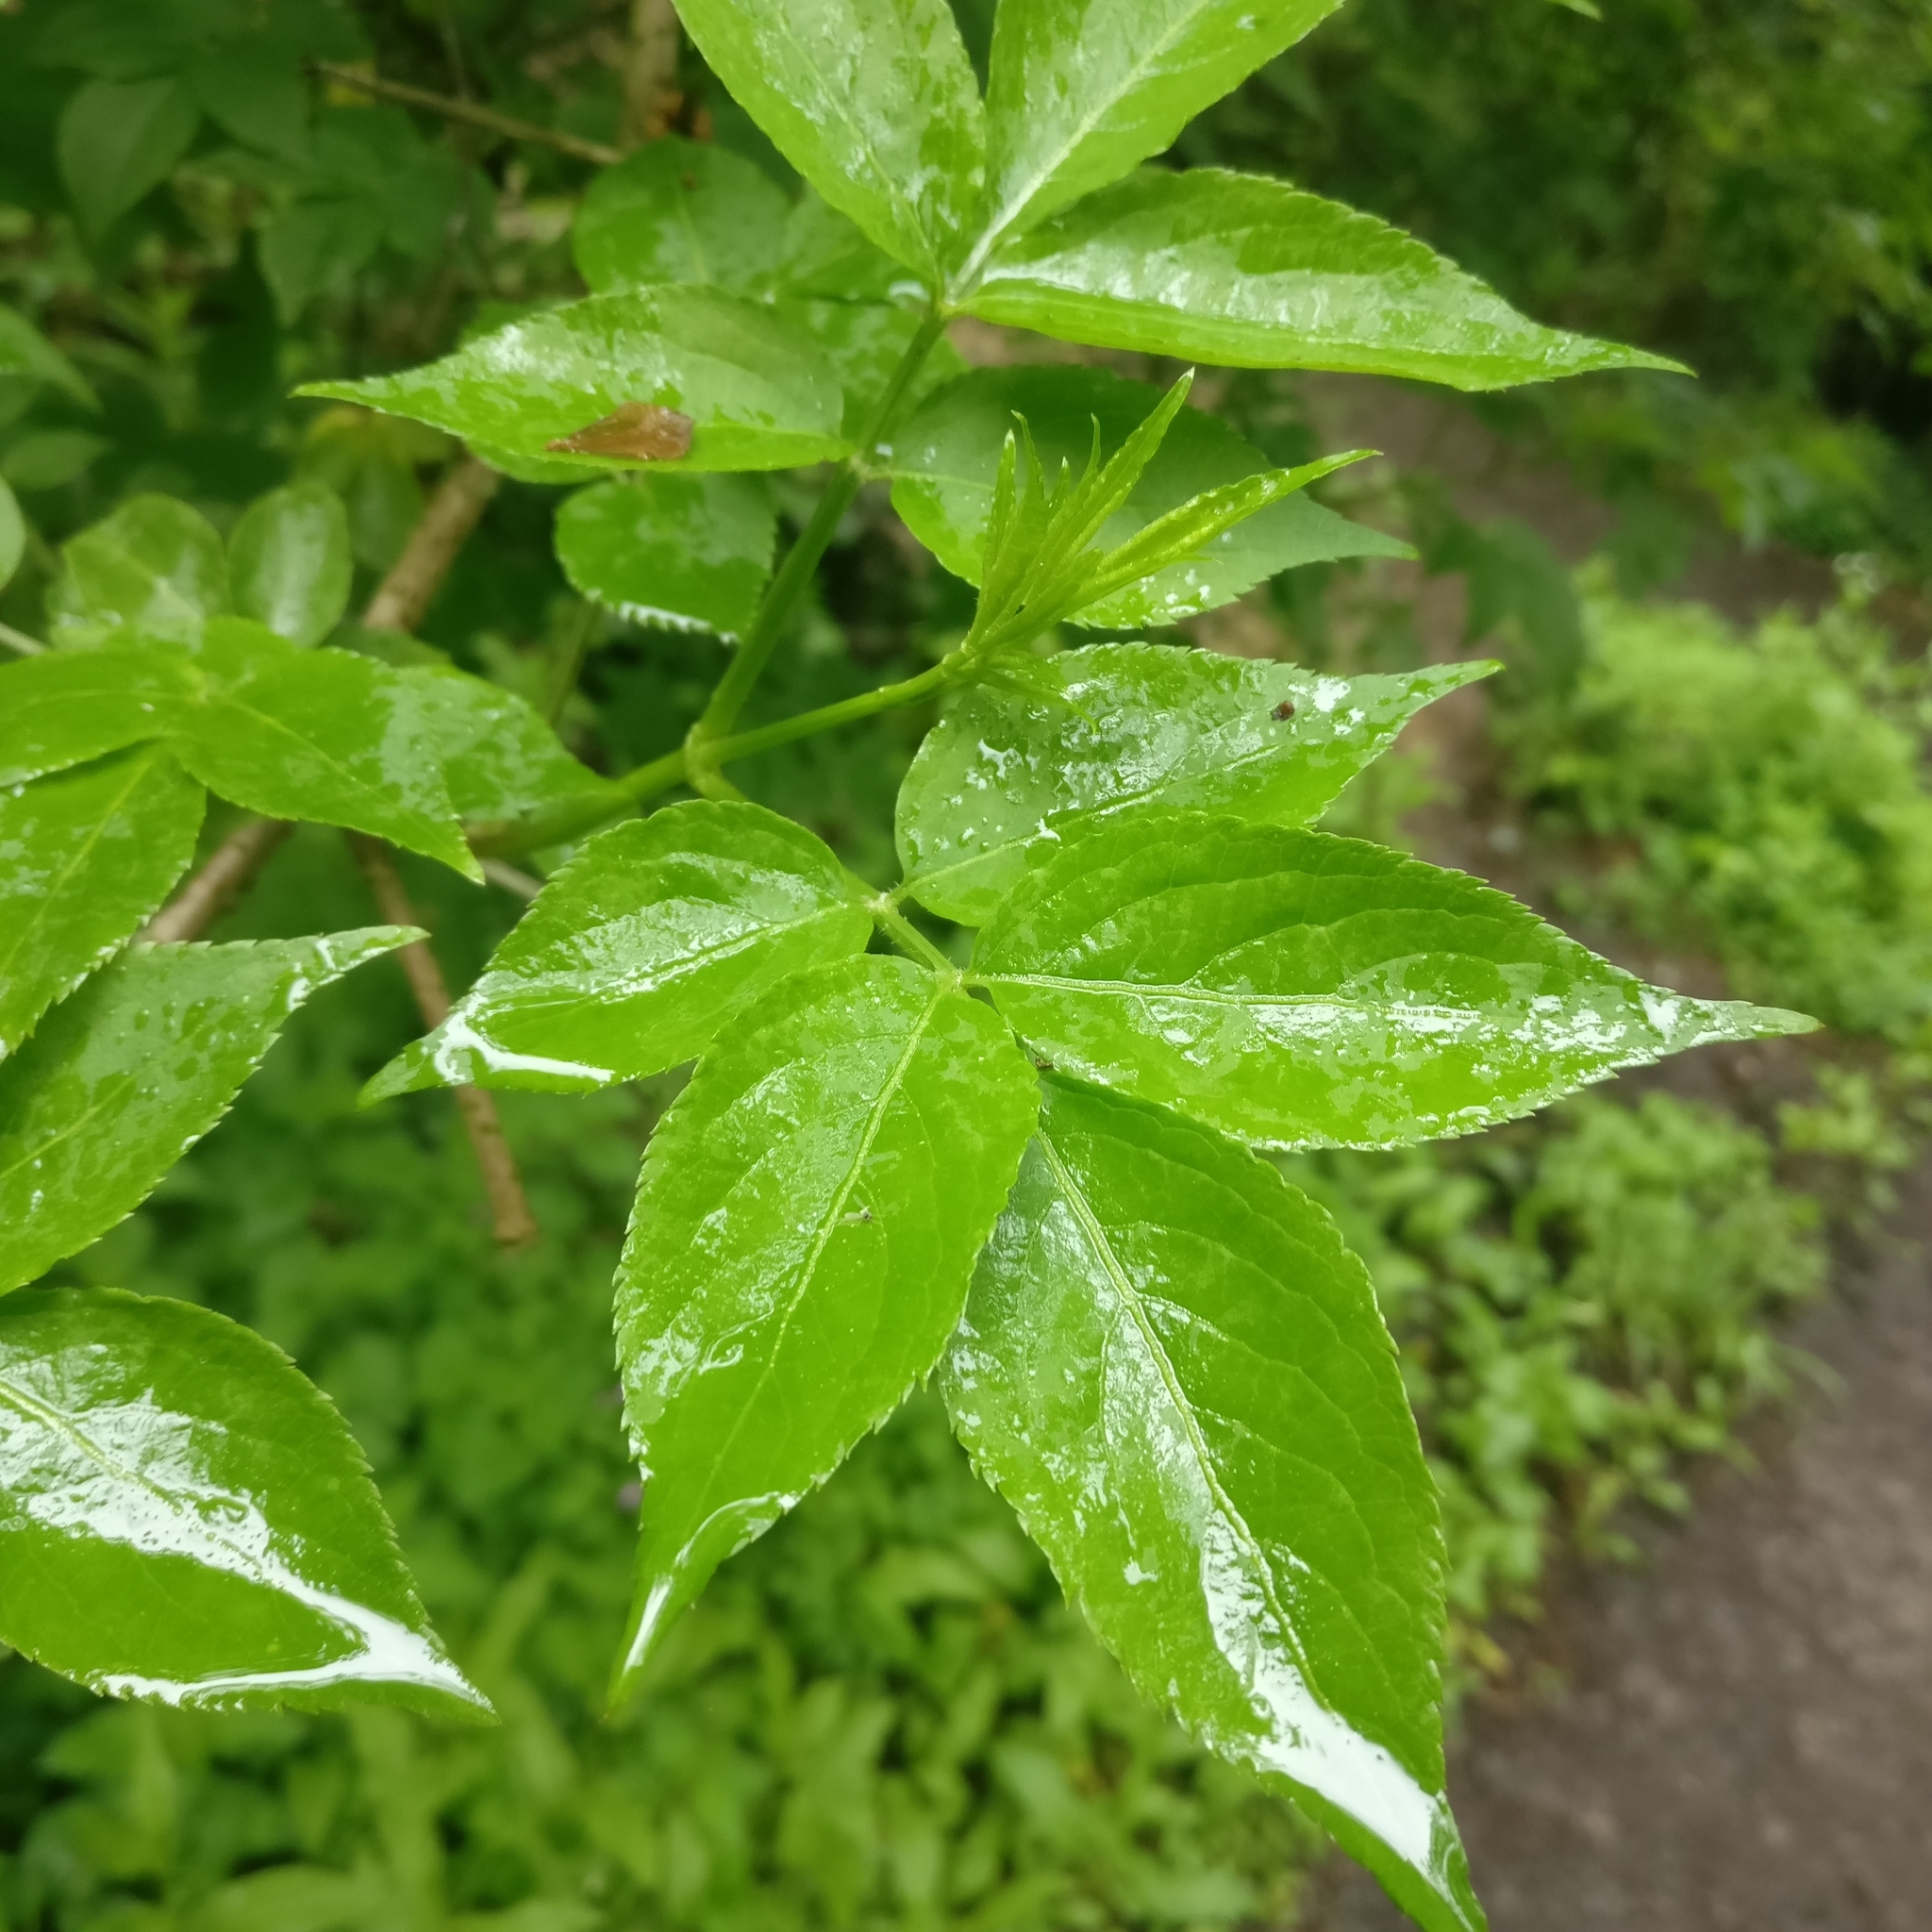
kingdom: Plantae
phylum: Tracheophyta
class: Magnoliopsida
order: Dipsacales
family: Viburnaceae
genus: Sambucus
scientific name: Sambucus nigra
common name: Elder
